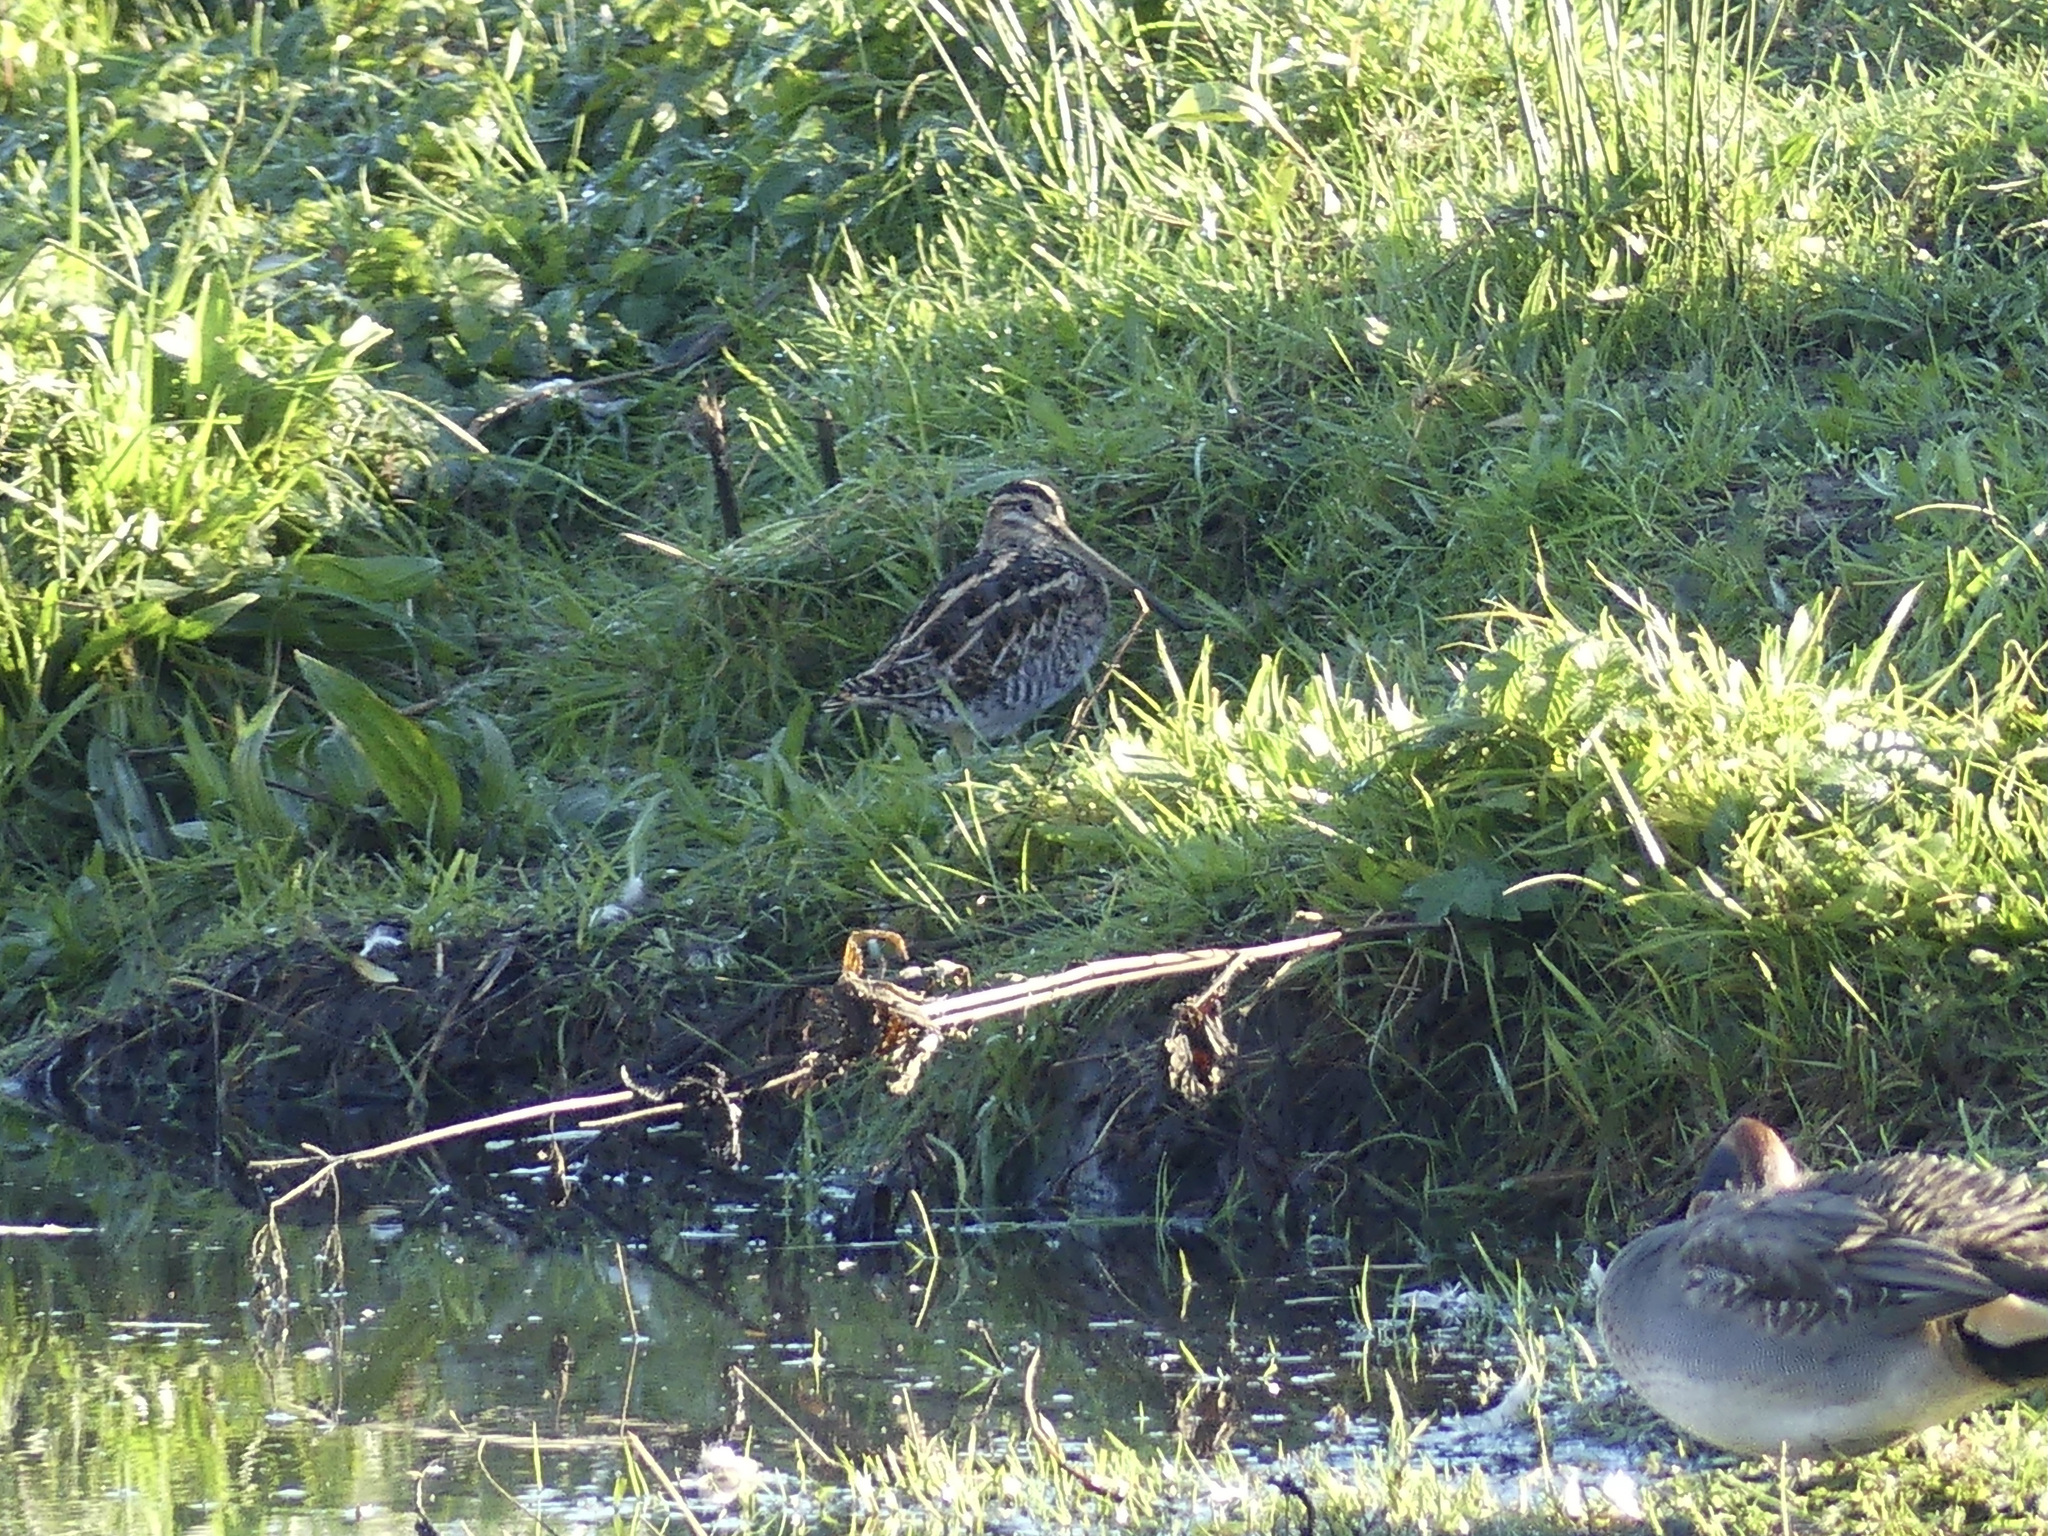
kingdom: Animalia
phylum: Chordata
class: Aves
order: Charadriiformes
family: Scolopacidae
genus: Gallinago
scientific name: Gallinago gallinago
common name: Common snipe
